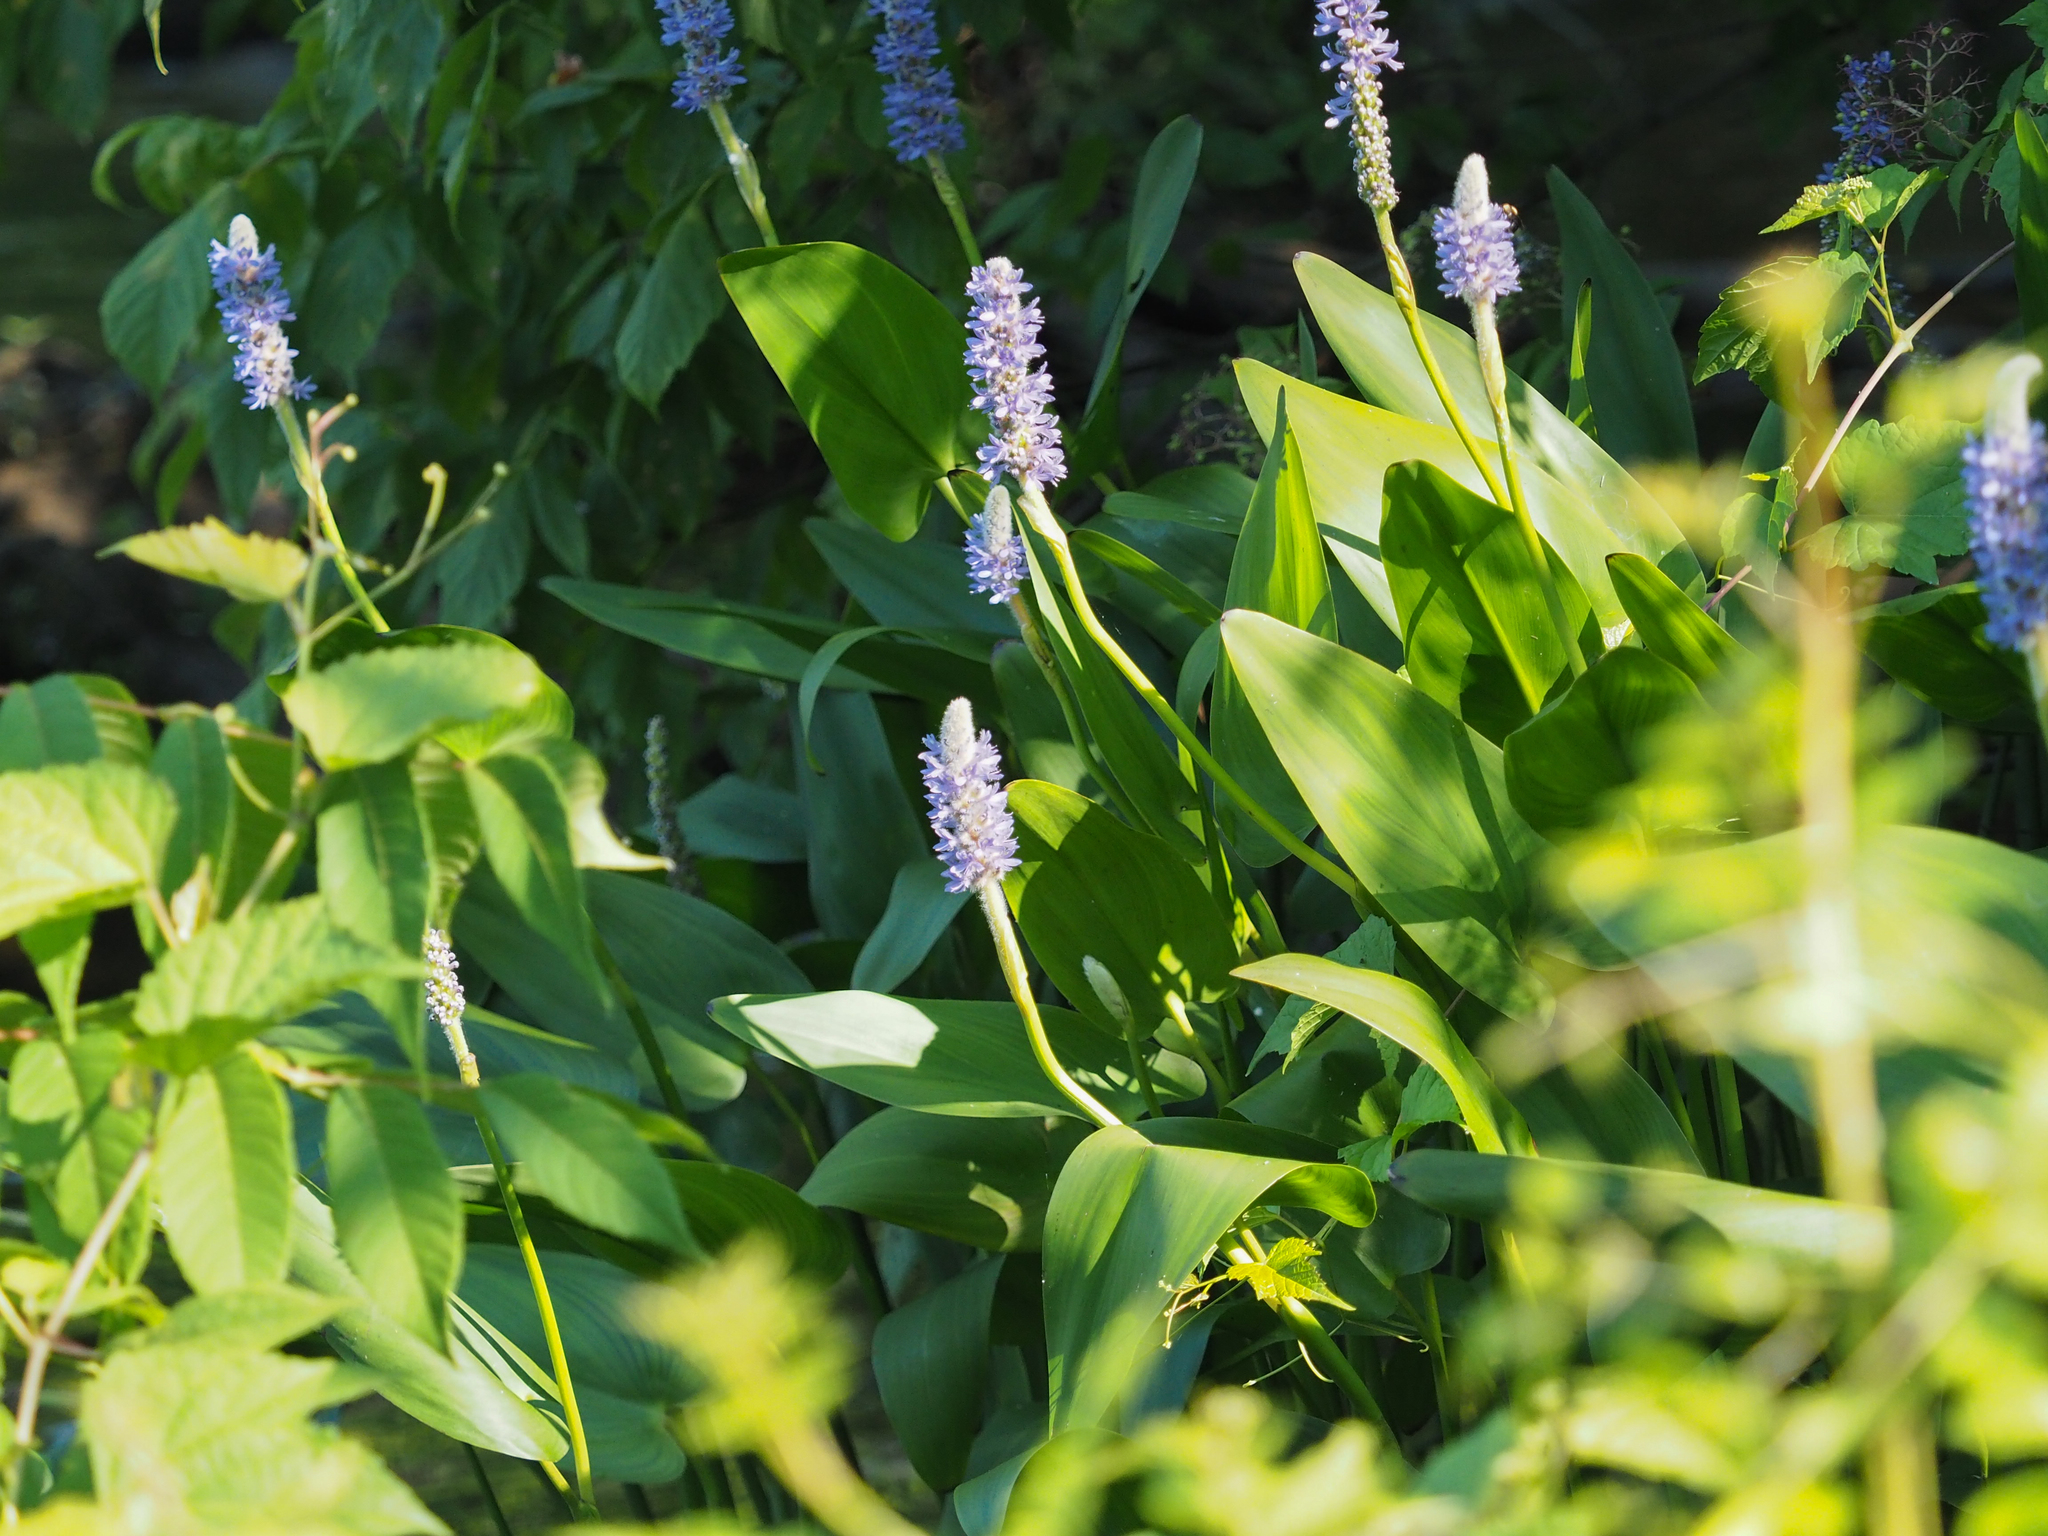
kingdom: Plantae
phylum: Tracheophyta
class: Liliopsida
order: Commelinales
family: Pontederiaceae
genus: Pontederia
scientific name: Pontederia cordata
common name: Pickerelweed
